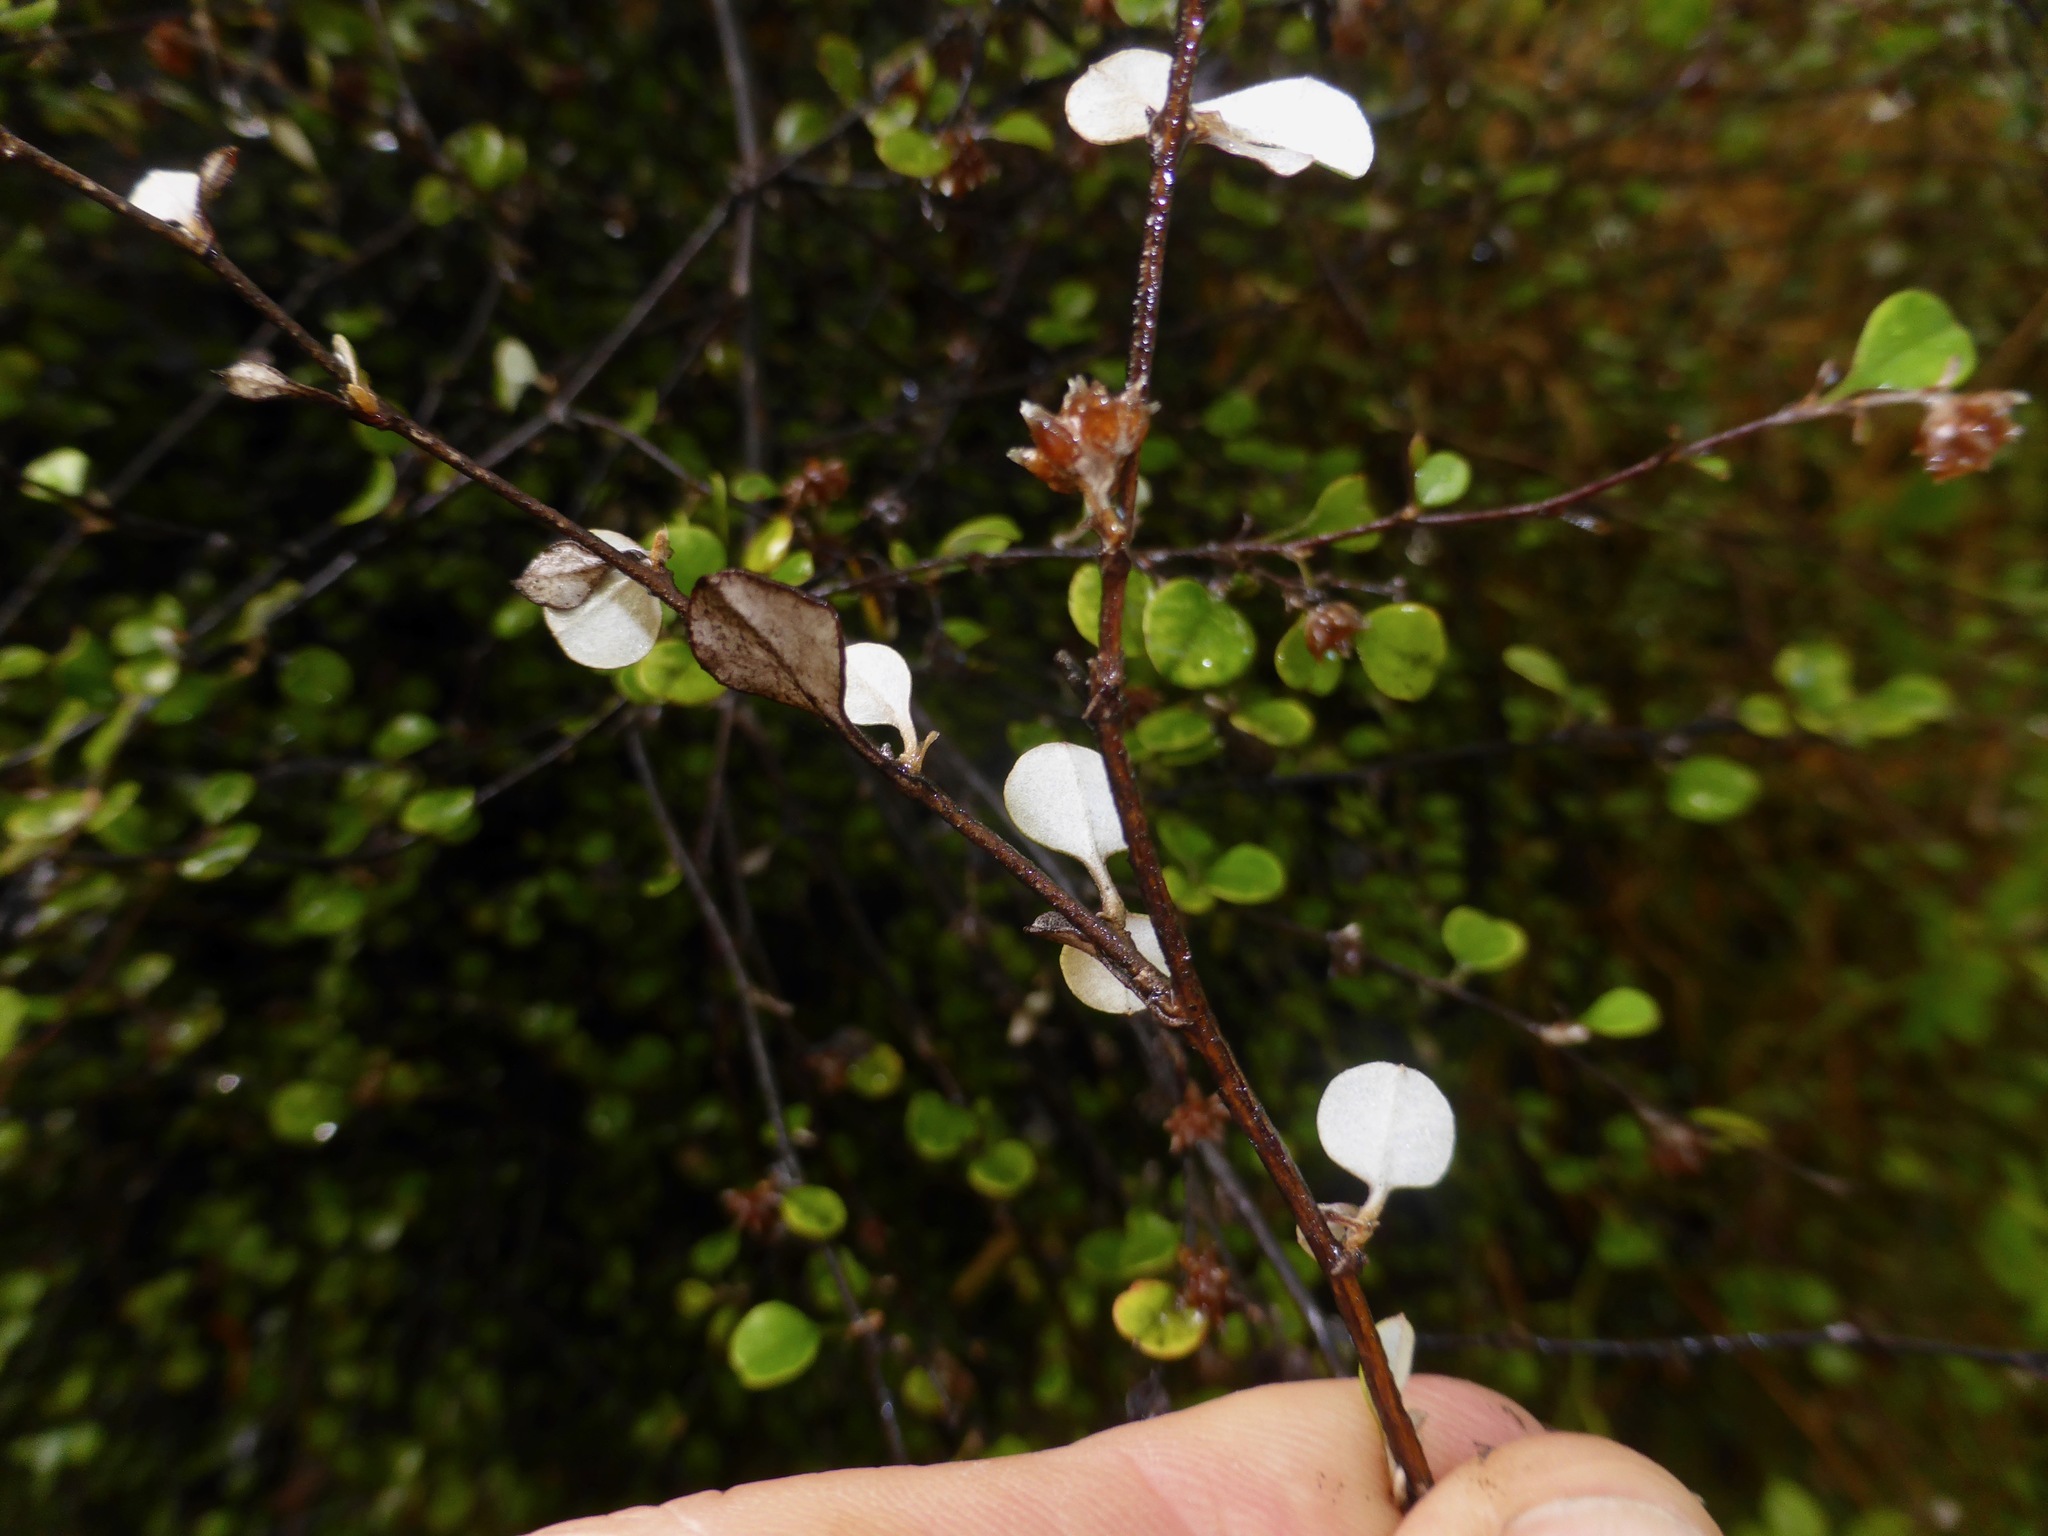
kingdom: Plantae
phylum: Tracheophyta
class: Magnoliopsida
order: Asterales
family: Asteraceae
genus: Ozothamnus
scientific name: Ozothamnus glomeratus
